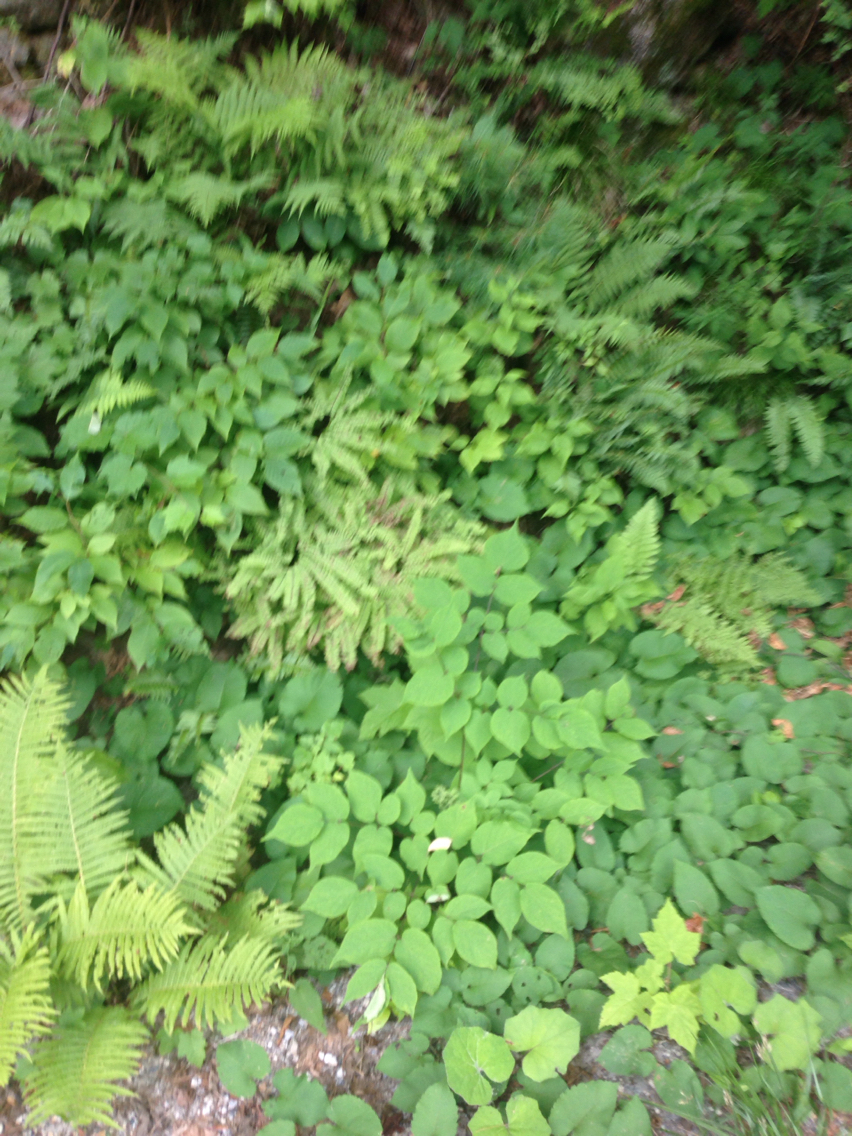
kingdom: Plantae
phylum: Tracheophyta
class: Magnoliopsida
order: Asterales
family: Asteraceae
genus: Tussilago
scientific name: Tussilago farfara
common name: Coltsfoot
